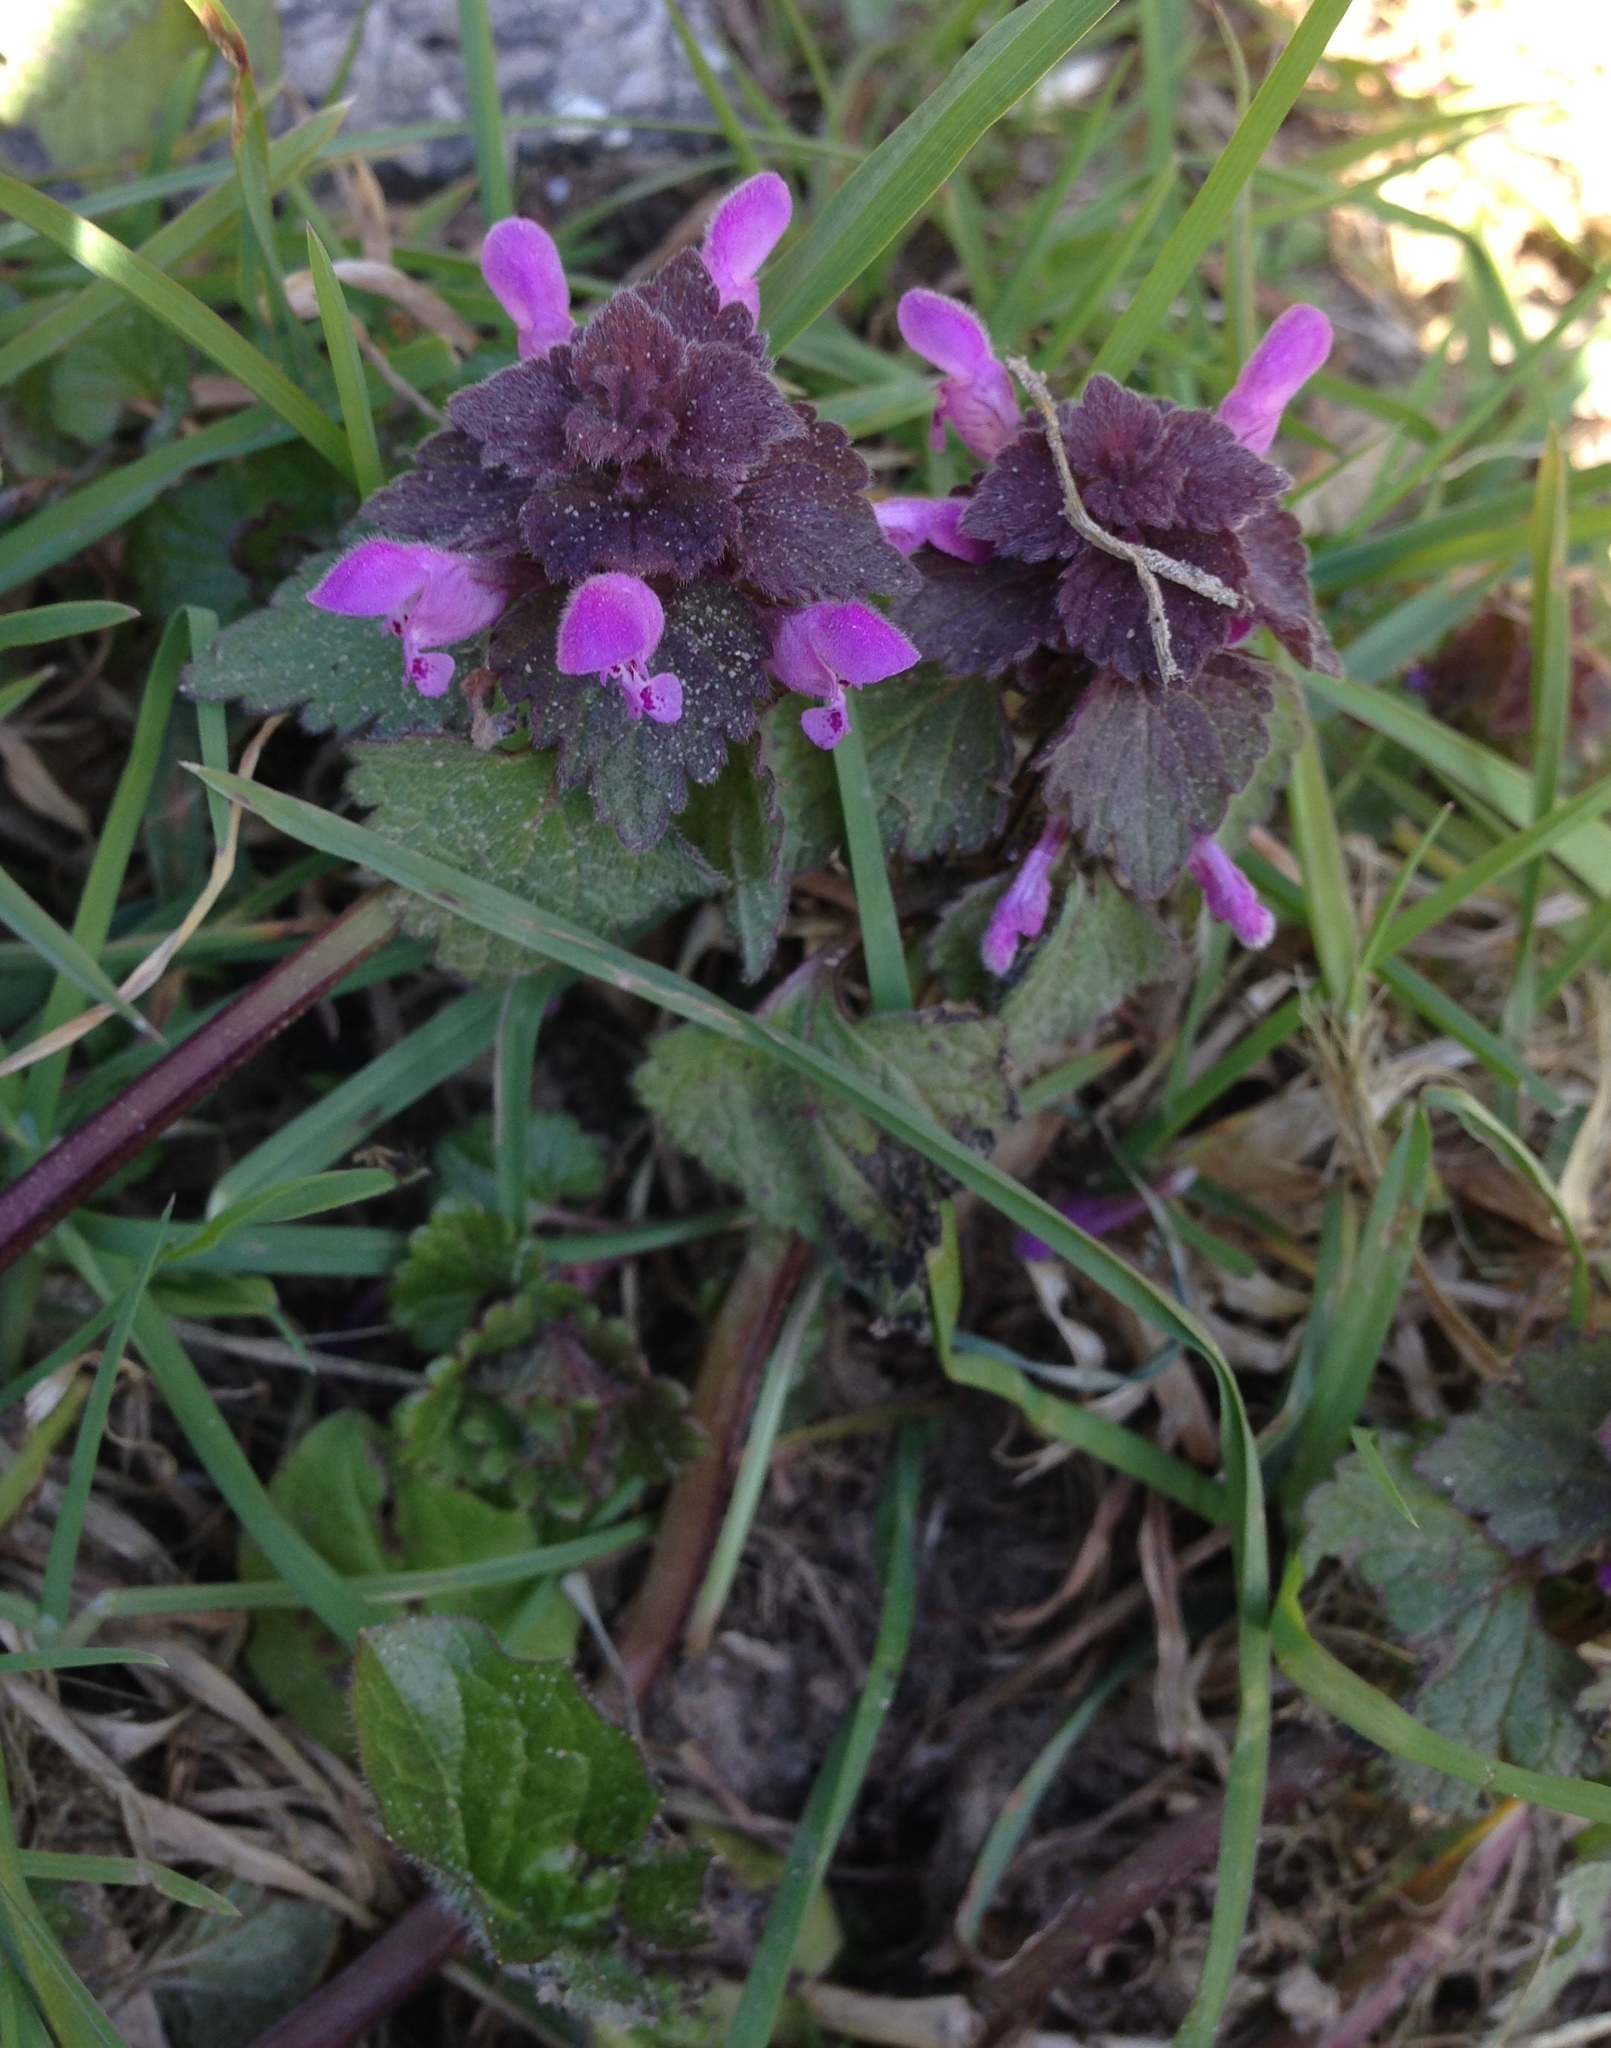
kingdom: Plantae
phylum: Tracheophyta
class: Magnoliopsida
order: Lamiales
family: Lamiaceae
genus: Lamium
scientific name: Lamium purpureum
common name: Red dead-nettle
